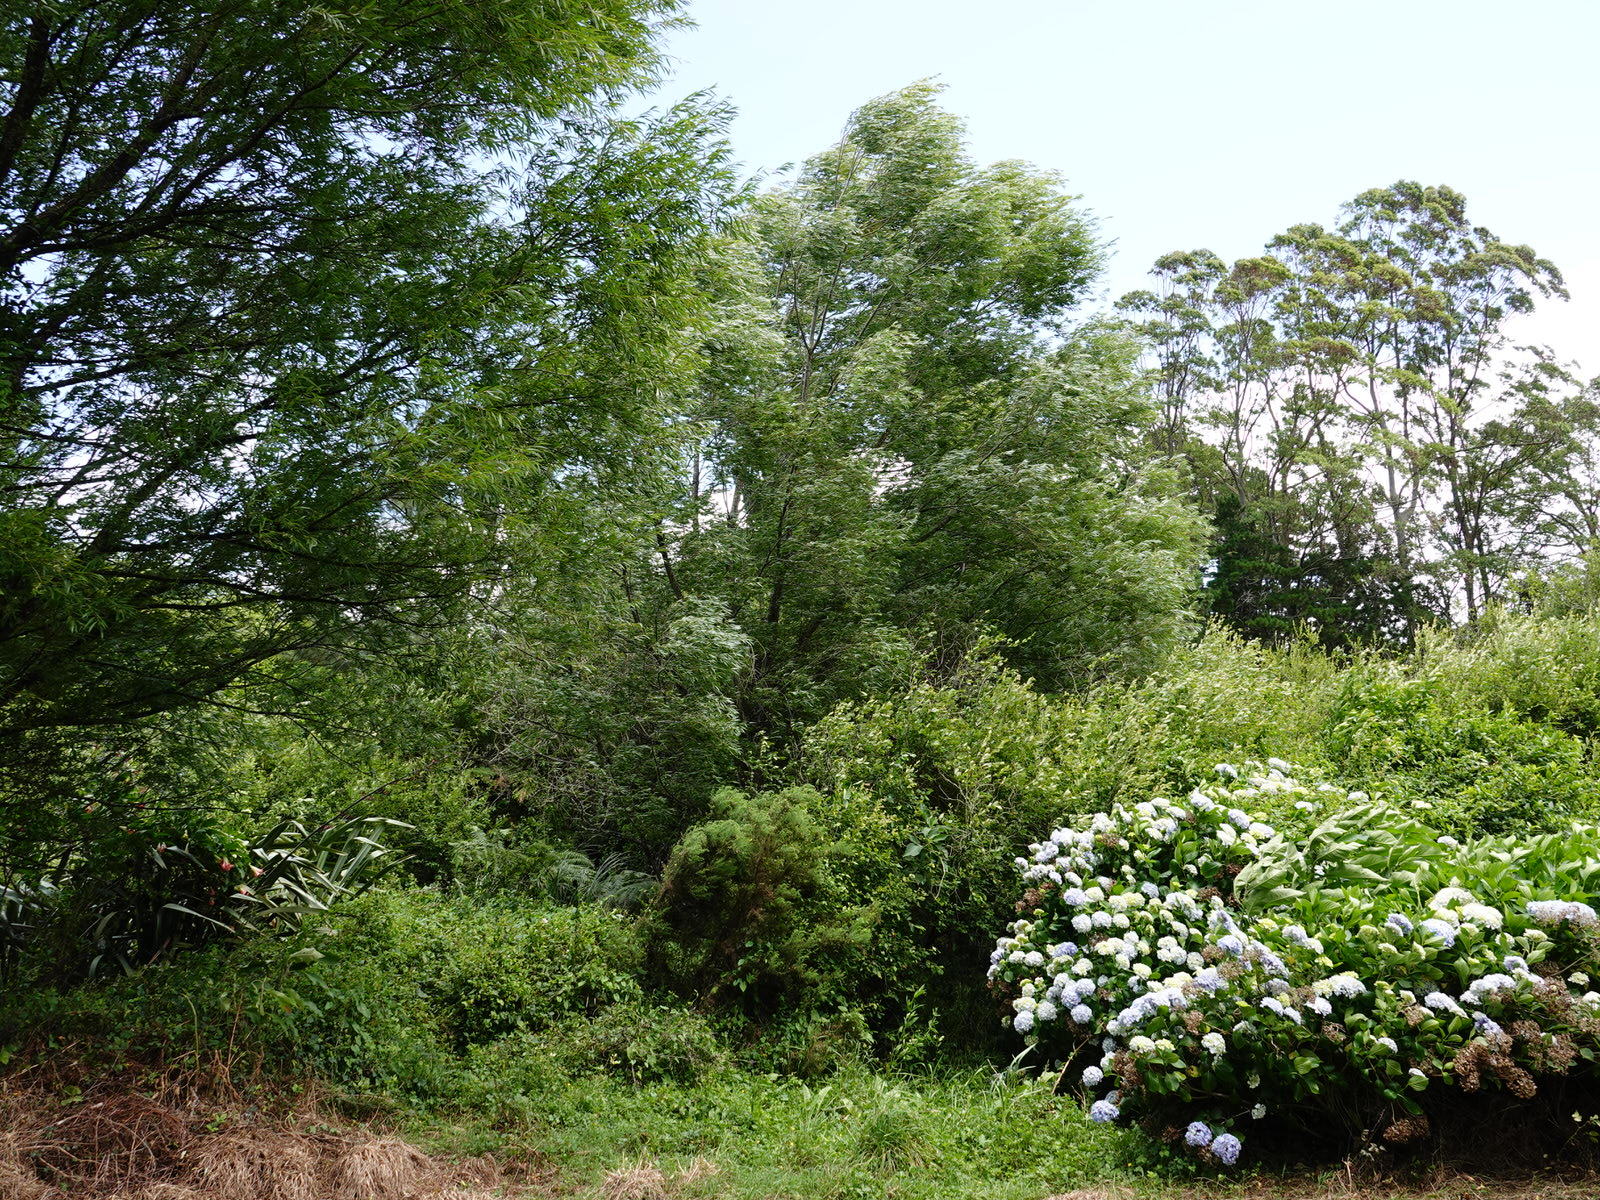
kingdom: Plantae
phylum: Tracheophyta
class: Magnoliopsida
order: Cornales
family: Hydrangeaceae
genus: Hydrangea
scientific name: Hydrangea macrophylla
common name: Hydrangea
